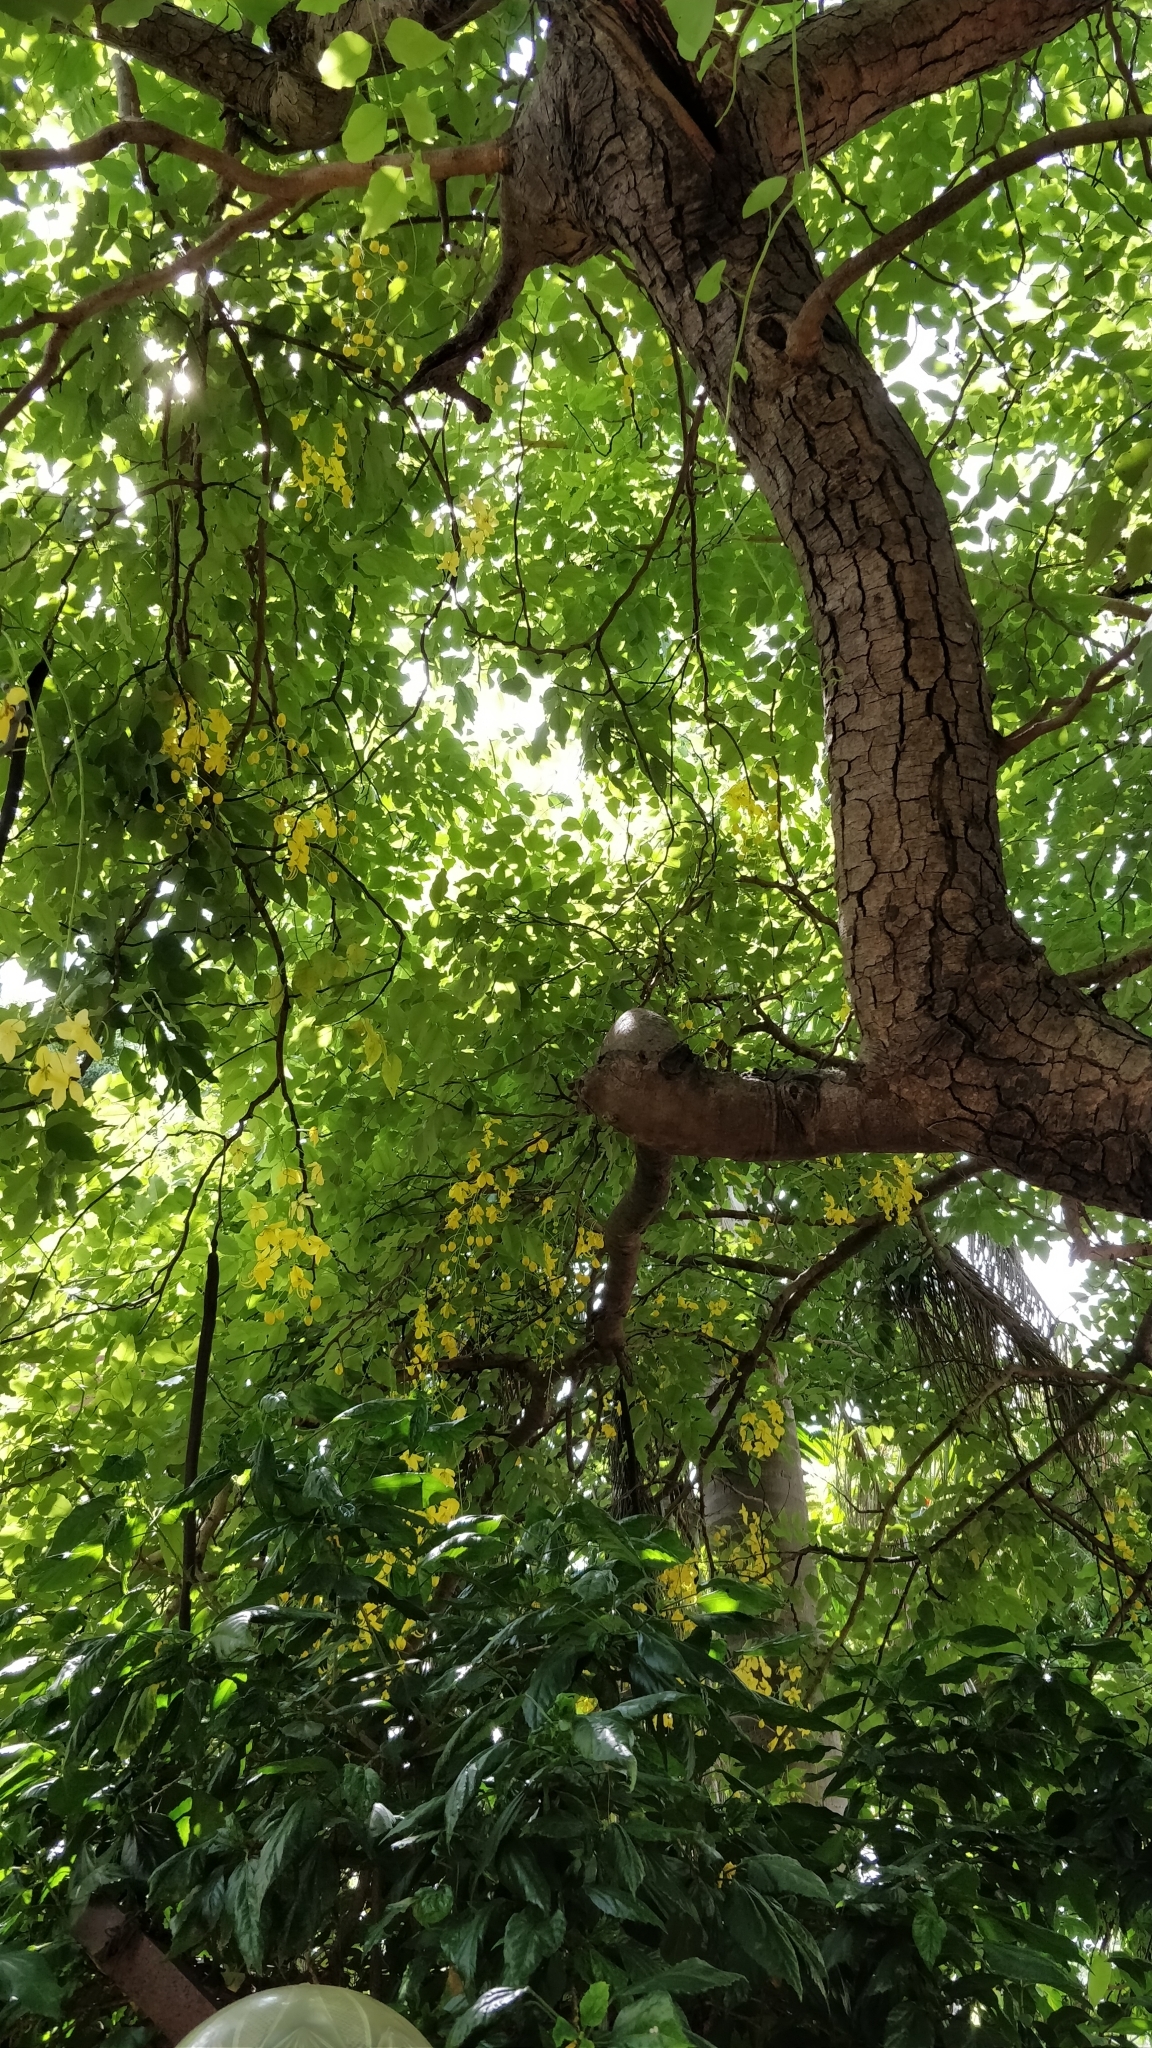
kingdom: Plantae
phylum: Tracheophyta
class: Magnoliopsida
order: Fabales
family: Fabaceae
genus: Cassia
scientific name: Cassia fistula
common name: Golden shower
